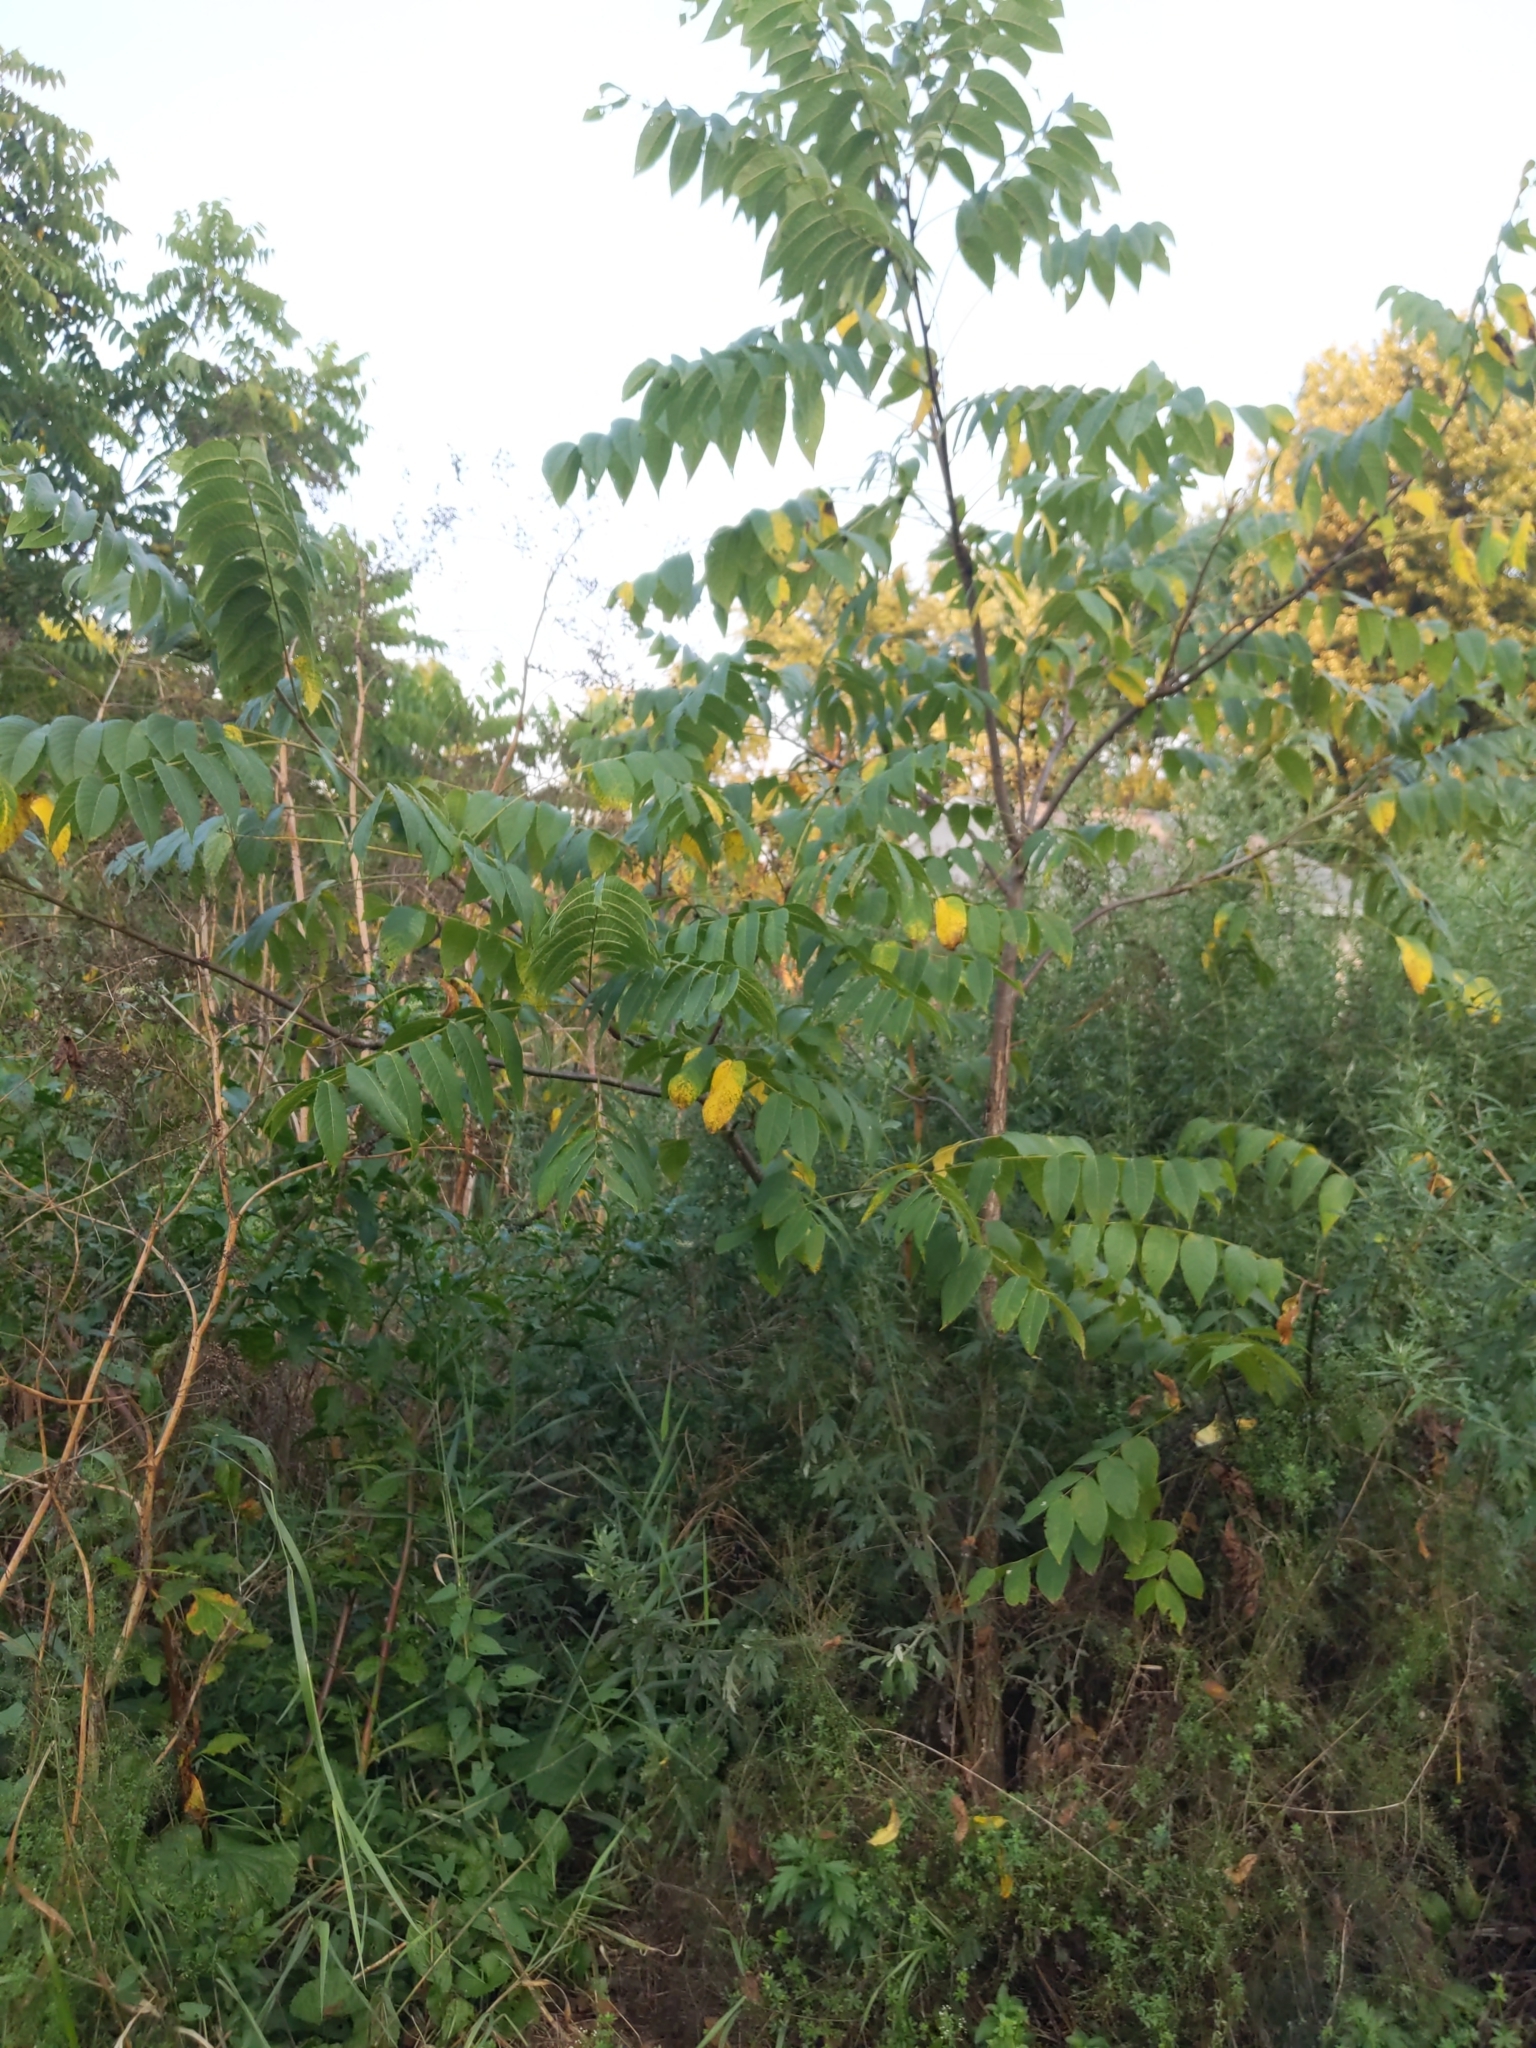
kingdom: Plantae
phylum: Tracheophyta
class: Magnoliopsida
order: Fagales
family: Juglandaceae
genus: Juglans
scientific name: Juglans nigra
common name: Black walnut
